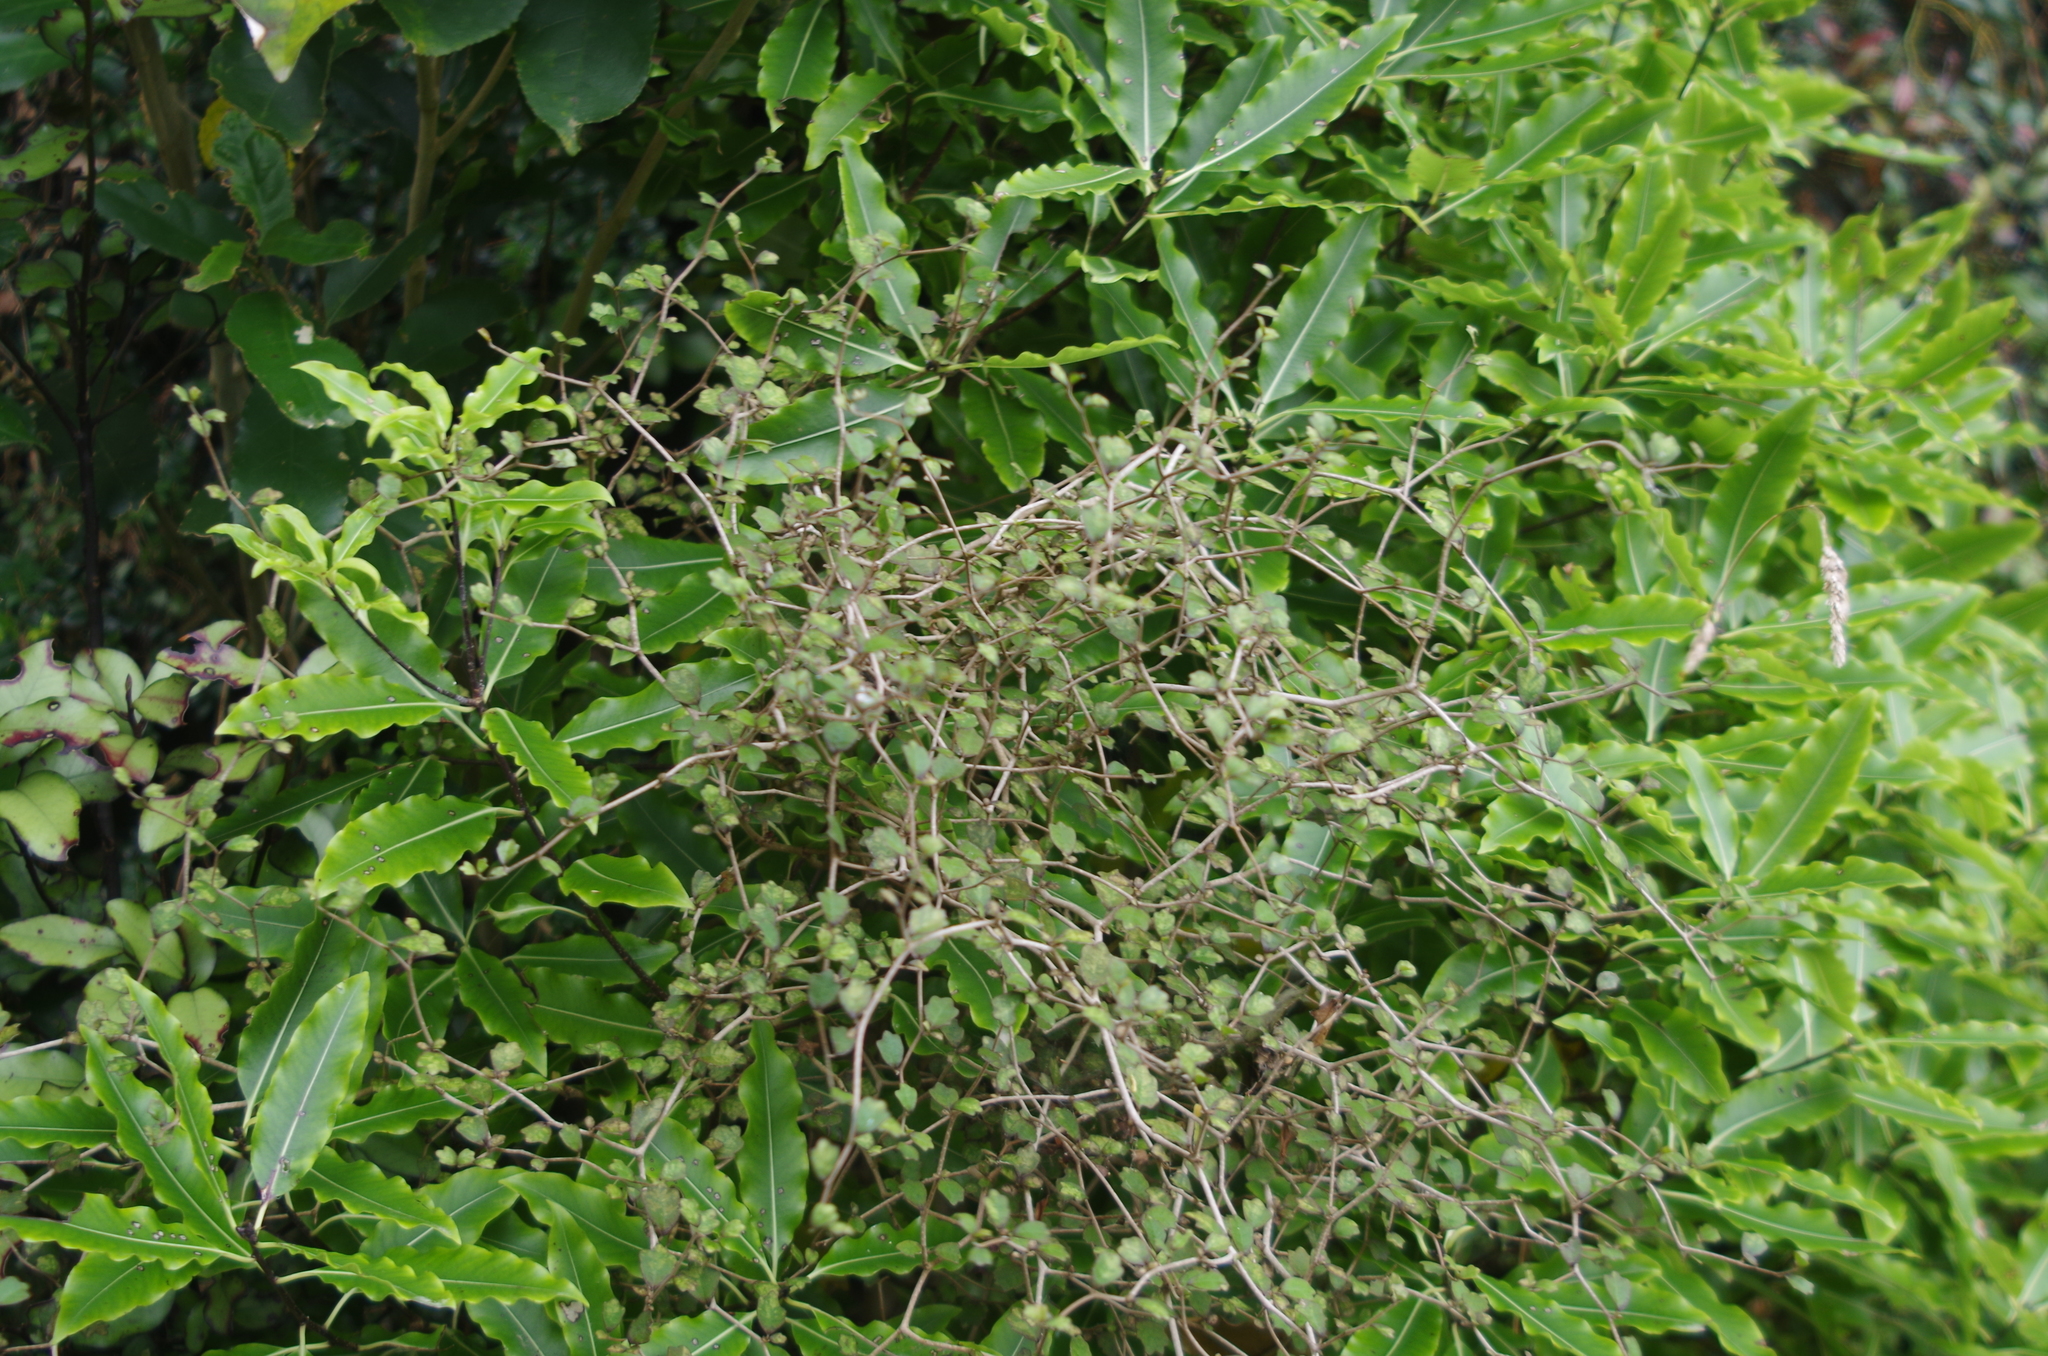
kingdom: Plantae
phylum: Tracheophyta
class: Magnoliopsida
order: Apiales
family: Pennantiaceae
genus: Pennantia
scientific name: Pennantia corymbosa
